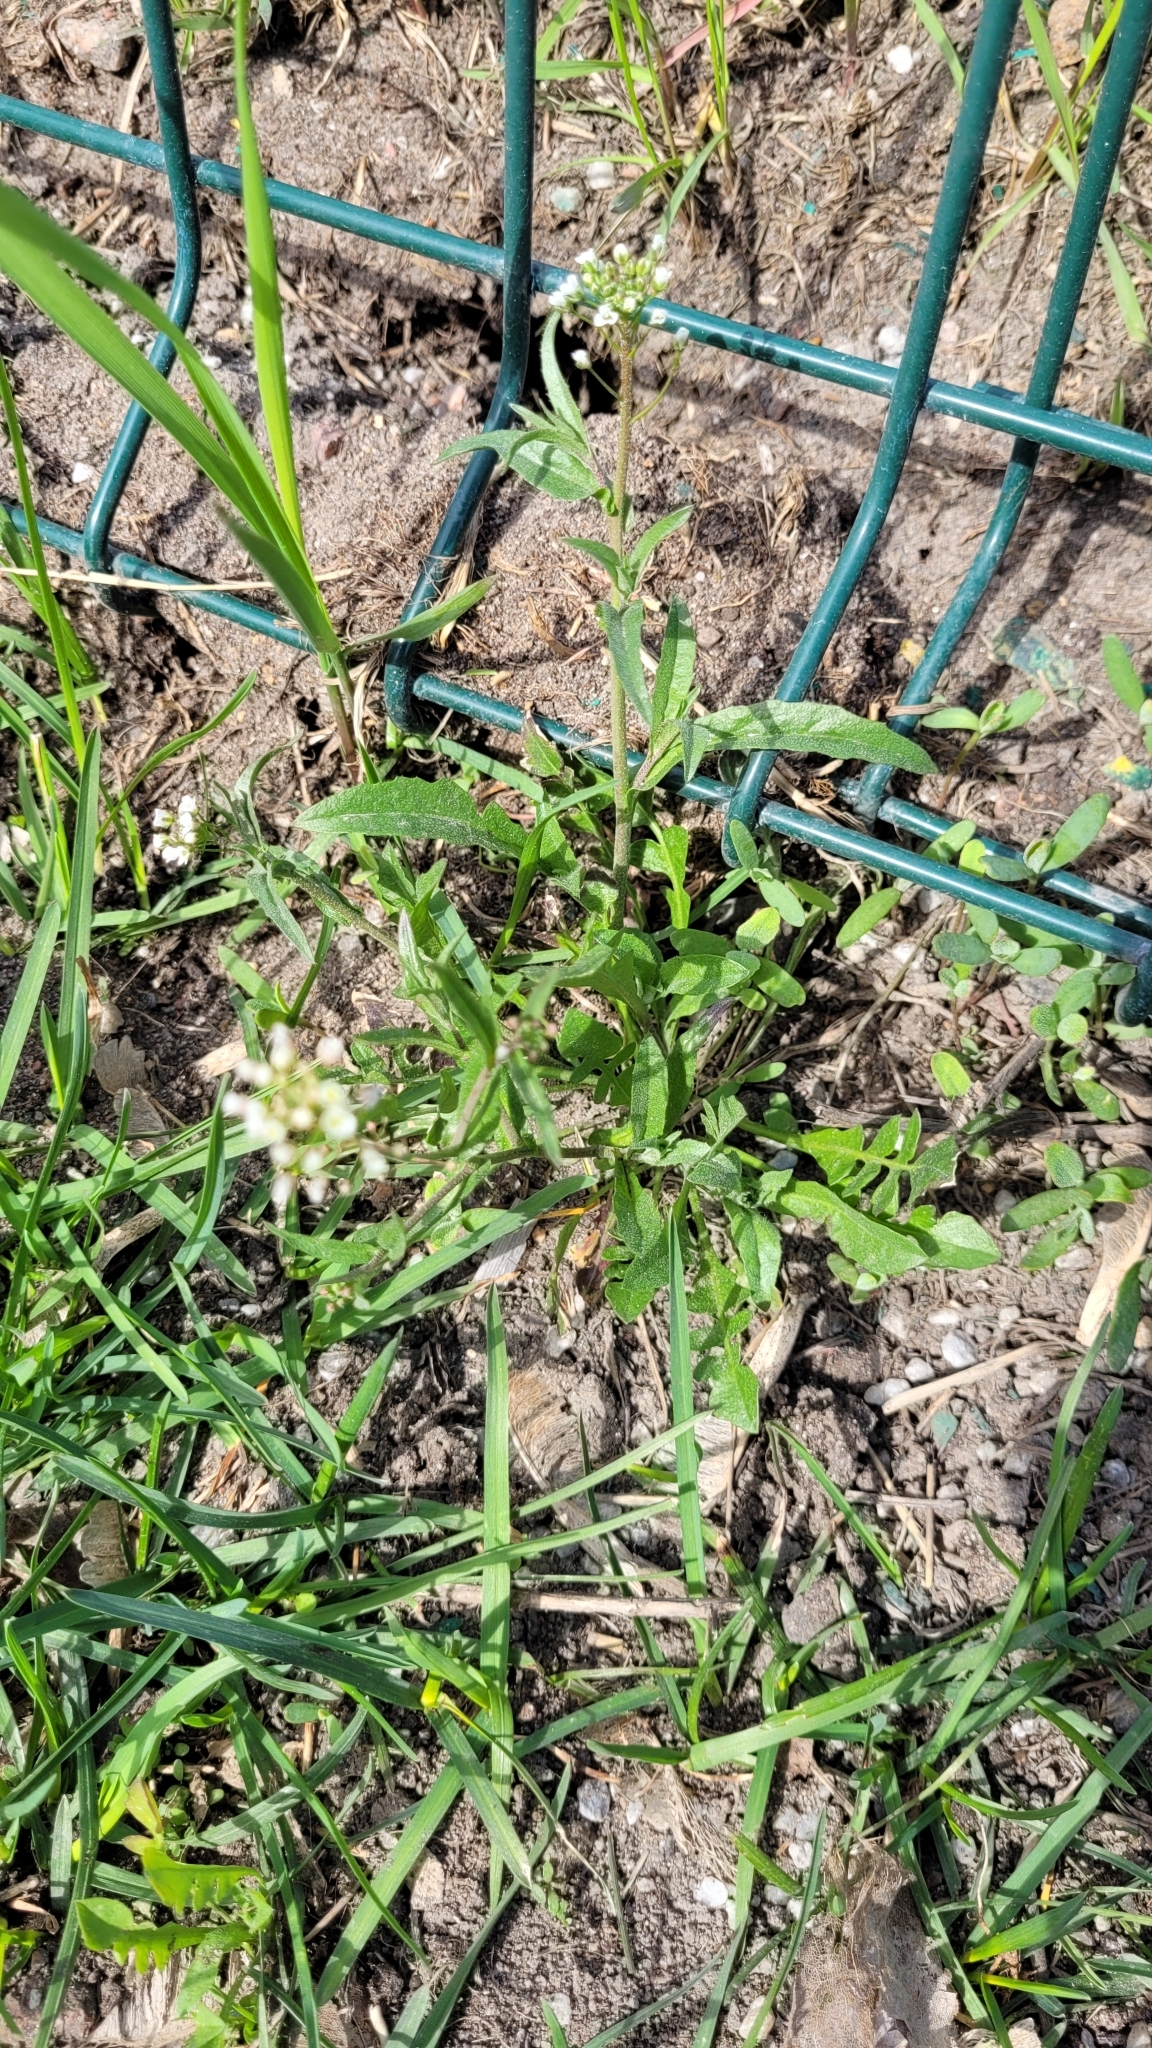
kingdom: Plantae
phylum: Tracheophyta
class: Magnoliopsida
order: Brassicales
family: Brassicaceae
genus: Capsella
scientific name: Capsella bursa-pastoris
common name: Shepherd's purse
